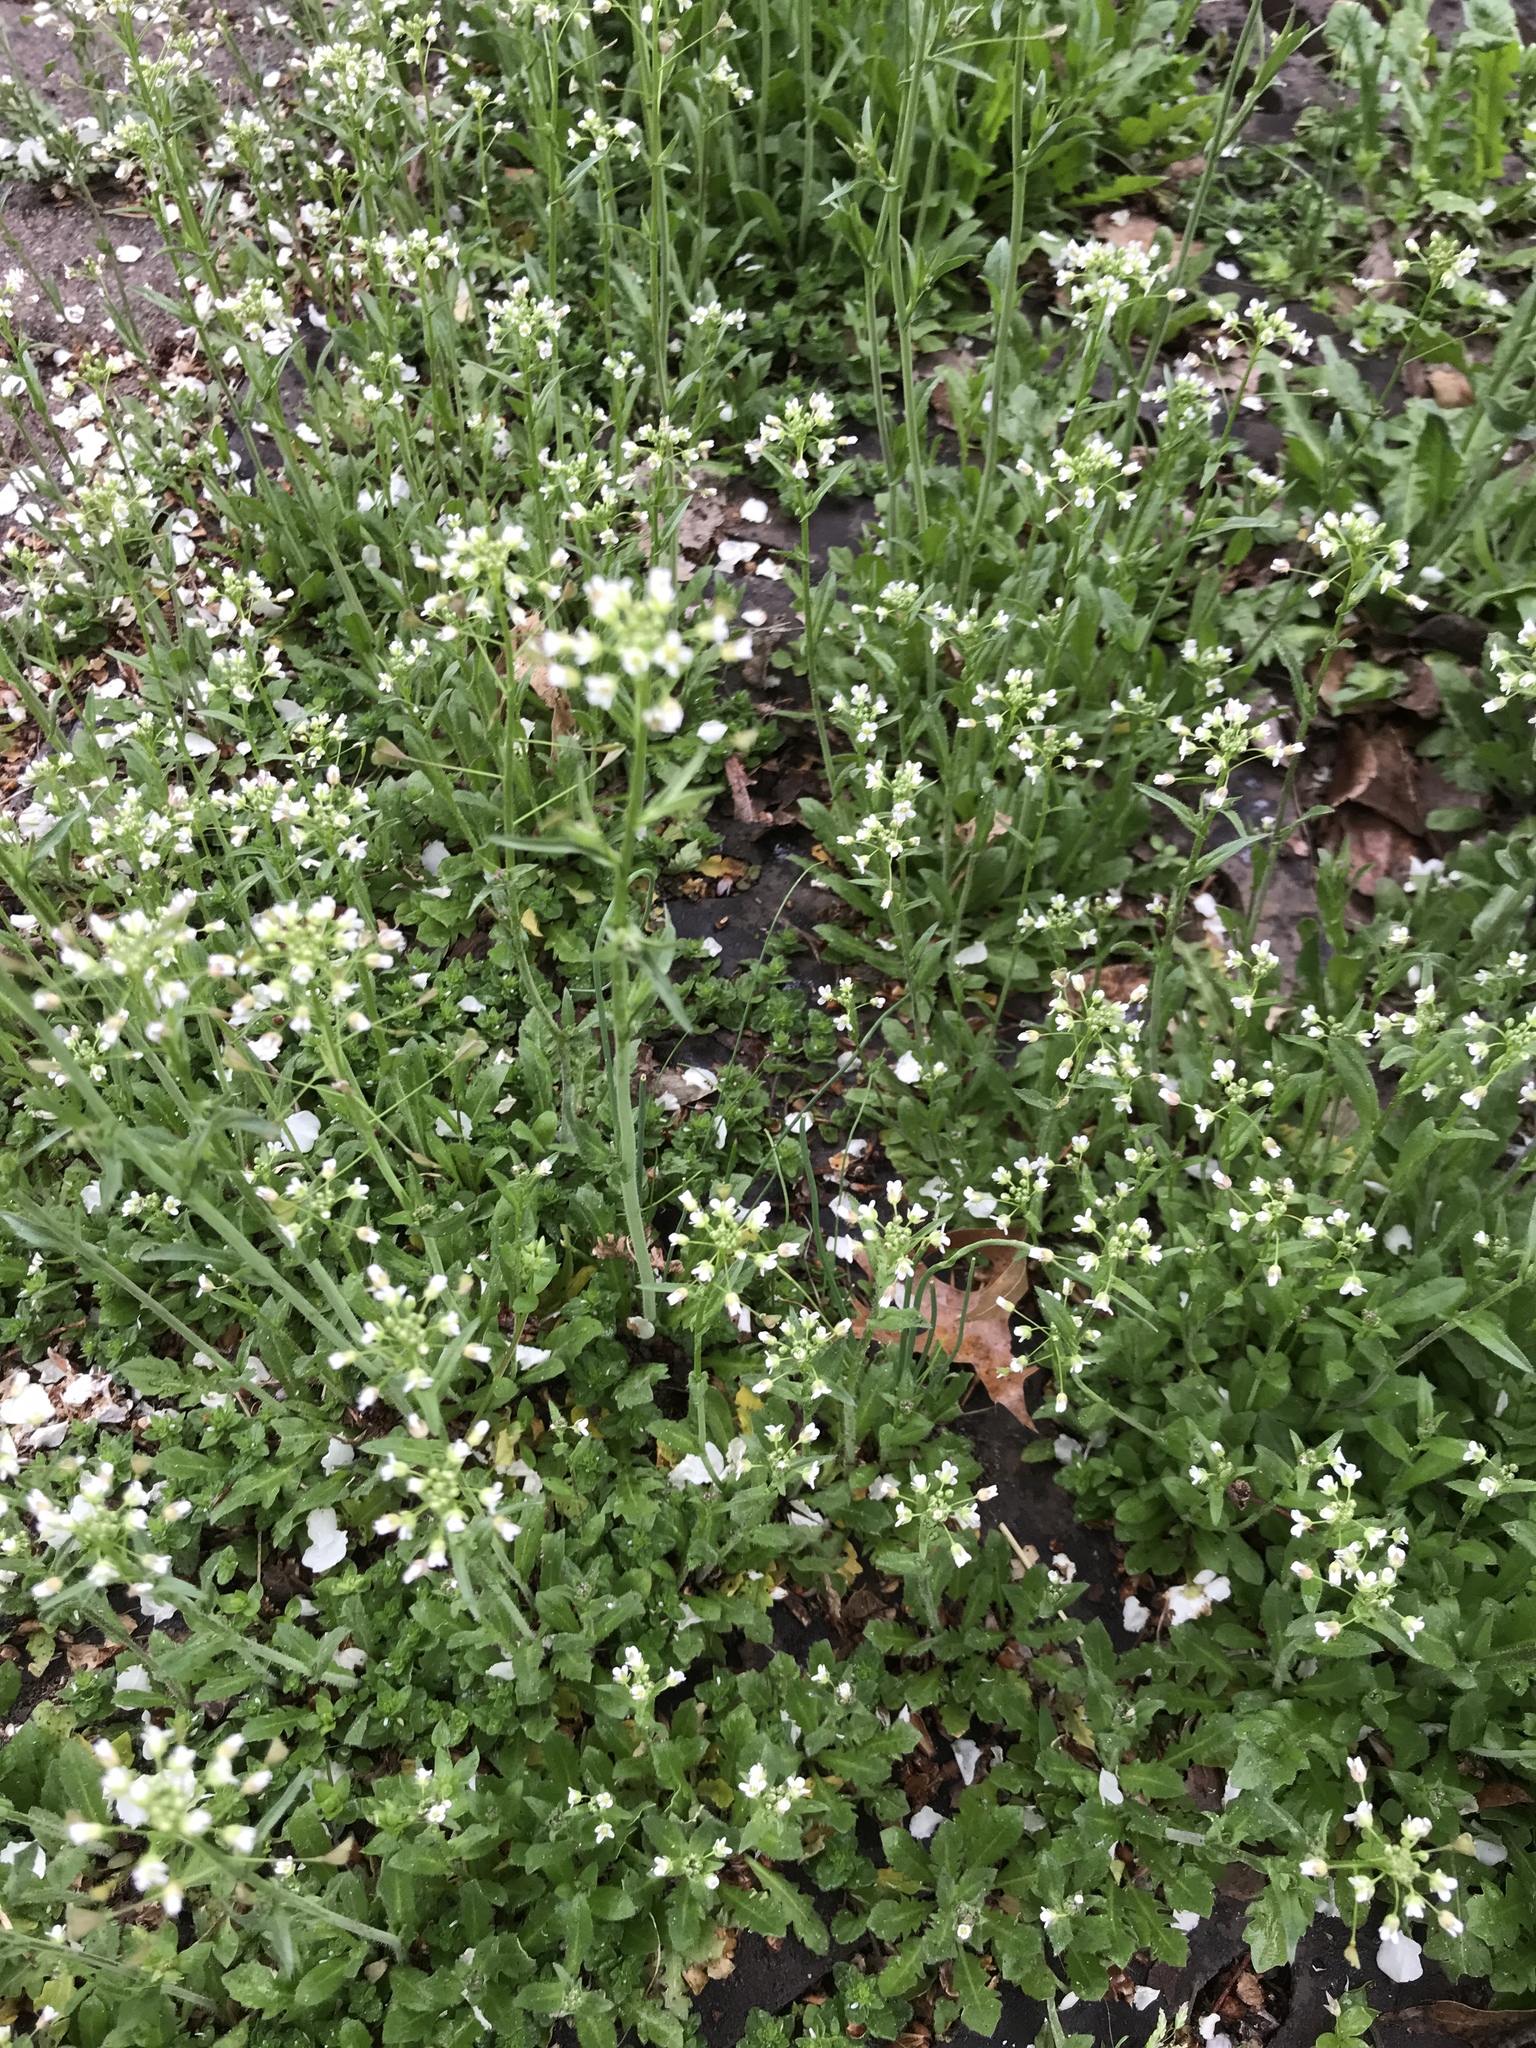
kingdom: Plantae
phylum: Tracheophyta
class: Magnoliopsida
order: Brassicales
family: Brassicaceae
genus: Capsella
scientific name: Capsella bursa-pastoris
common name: Shepherd's purse
